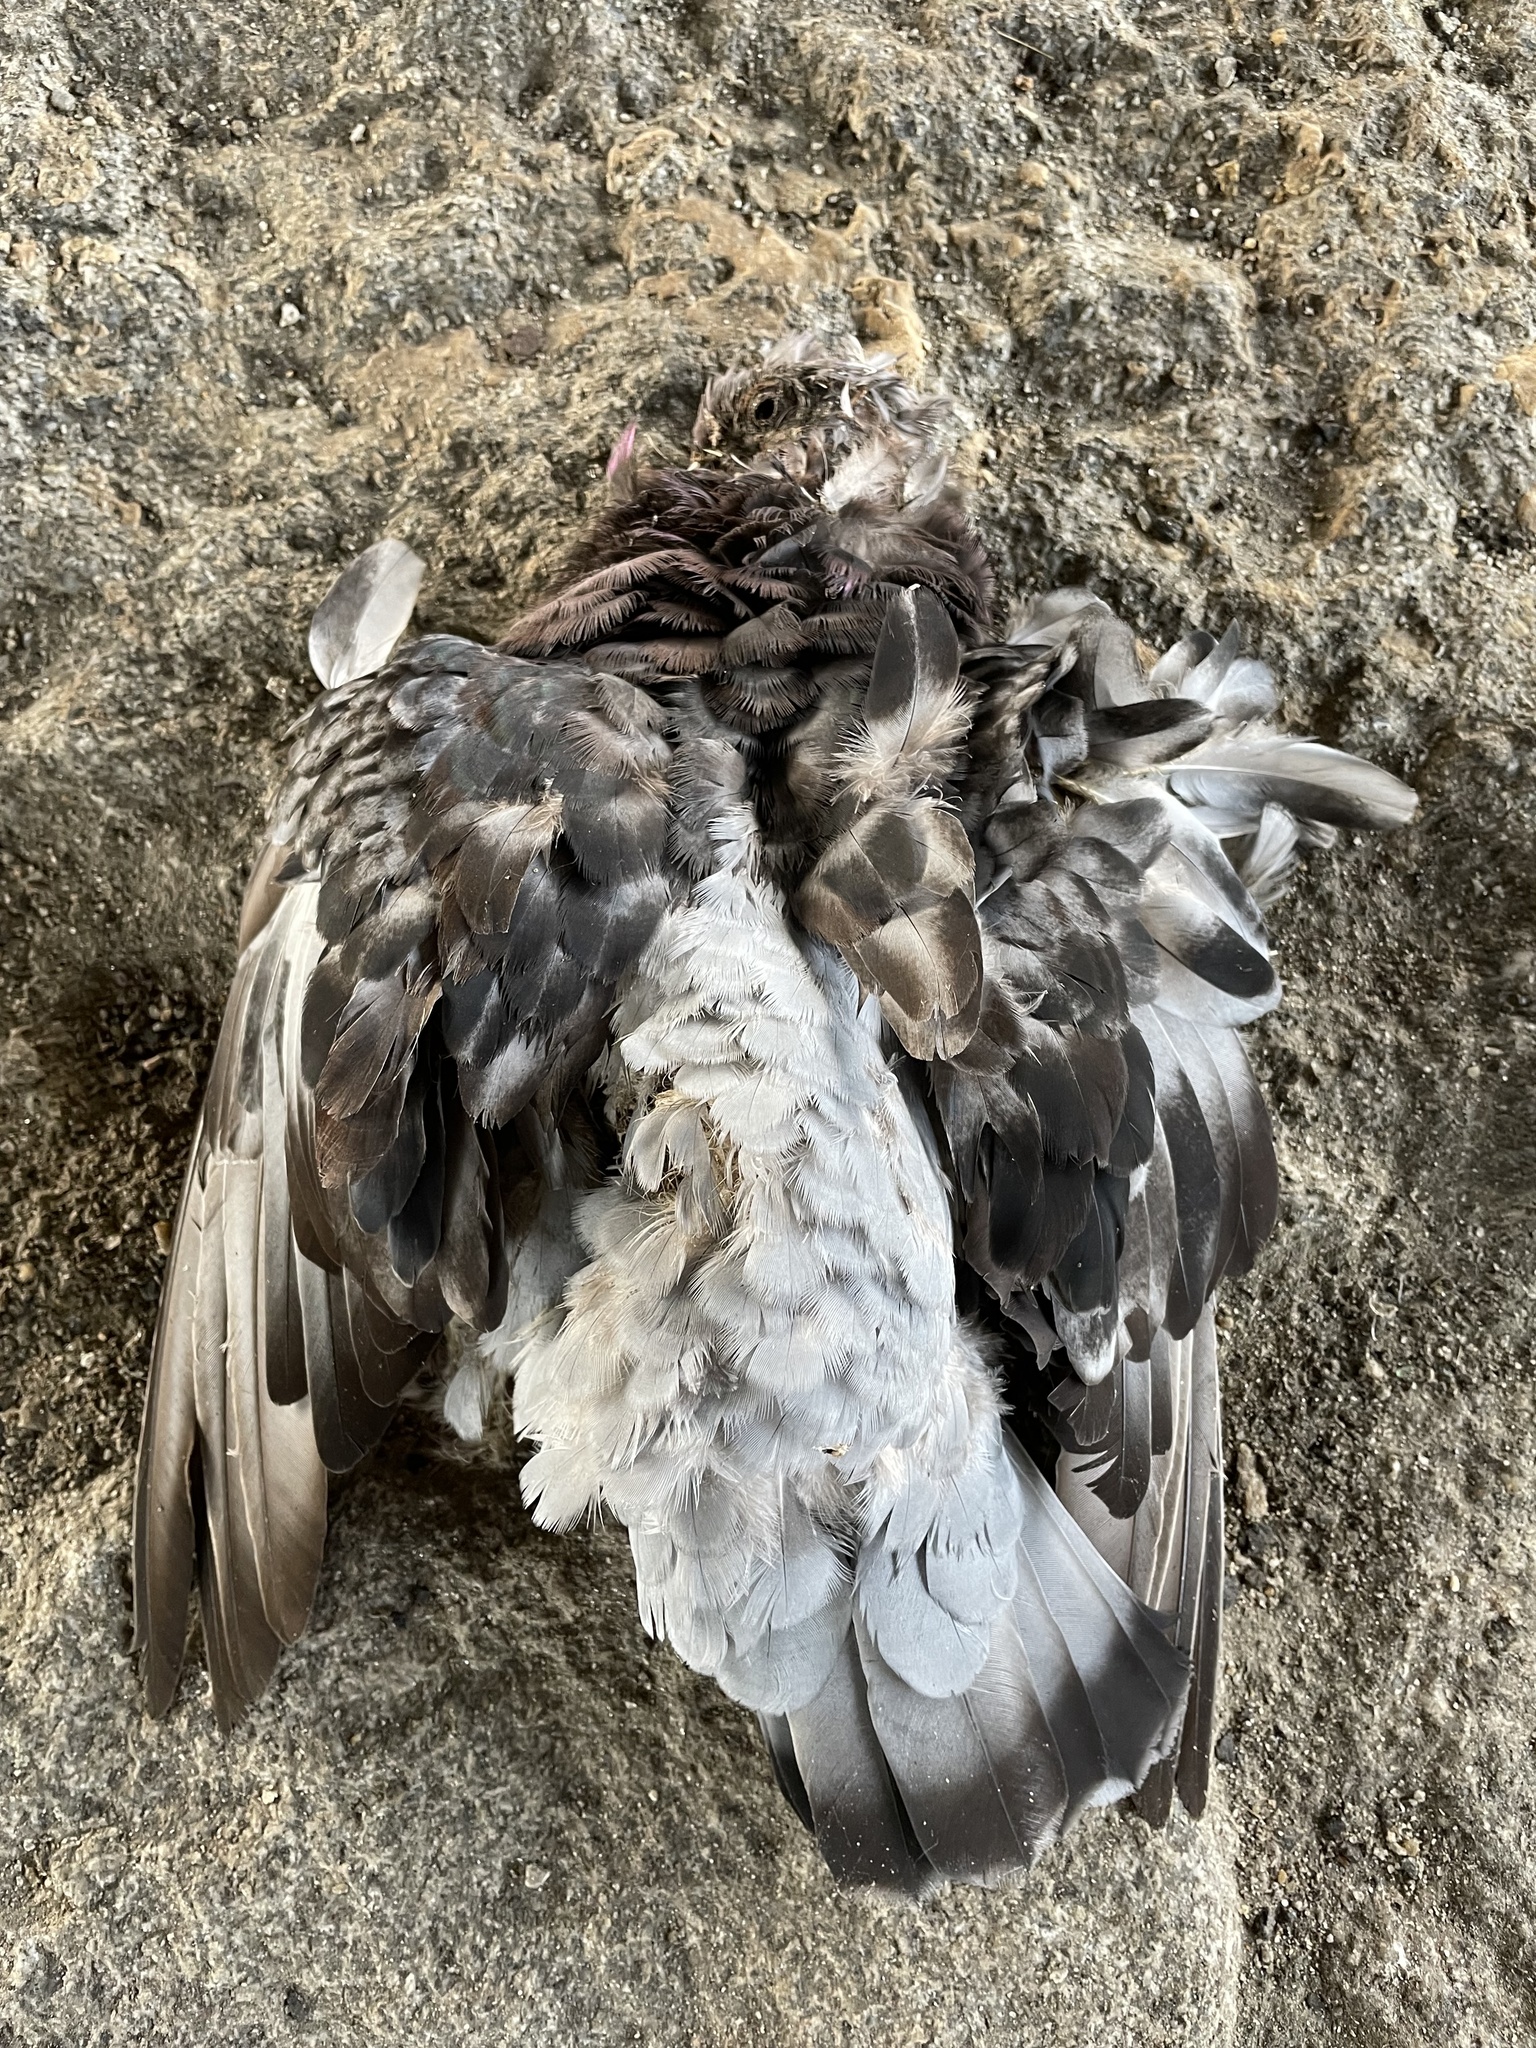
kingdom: Animalia
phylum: Chordata
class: Aves
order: Columbiformes
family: Columbidae
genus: Columba
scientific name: Columba livia
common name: Rock pigeon
